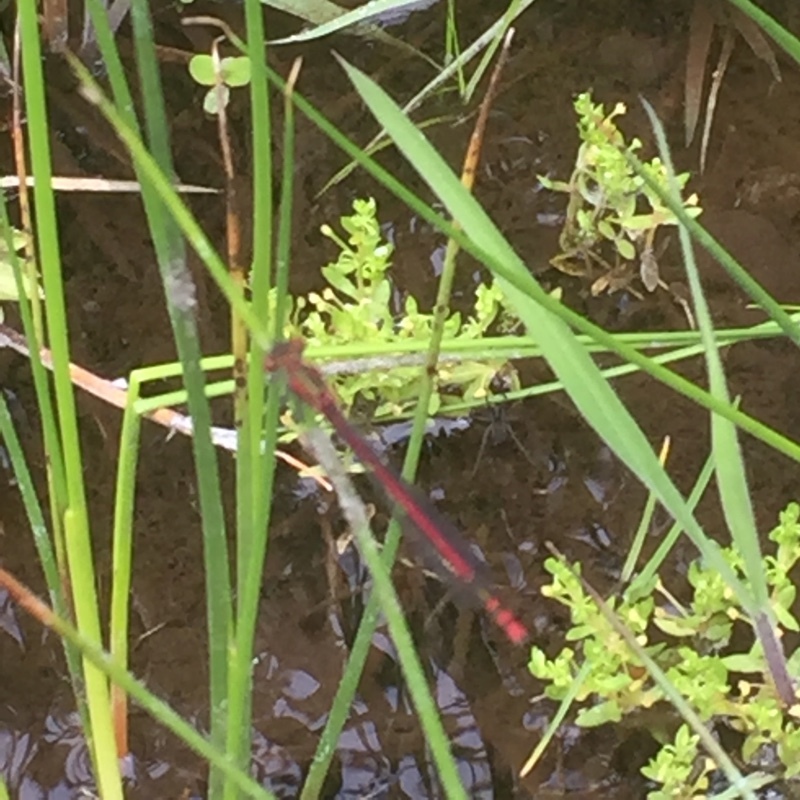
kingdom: Animalia
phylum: Arthropoda
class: Insecta
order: Odonata
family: Coenagrionidae
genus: Pyrrhosoma
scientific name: Pyrrhosoma nymphula
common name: Large red damsel
